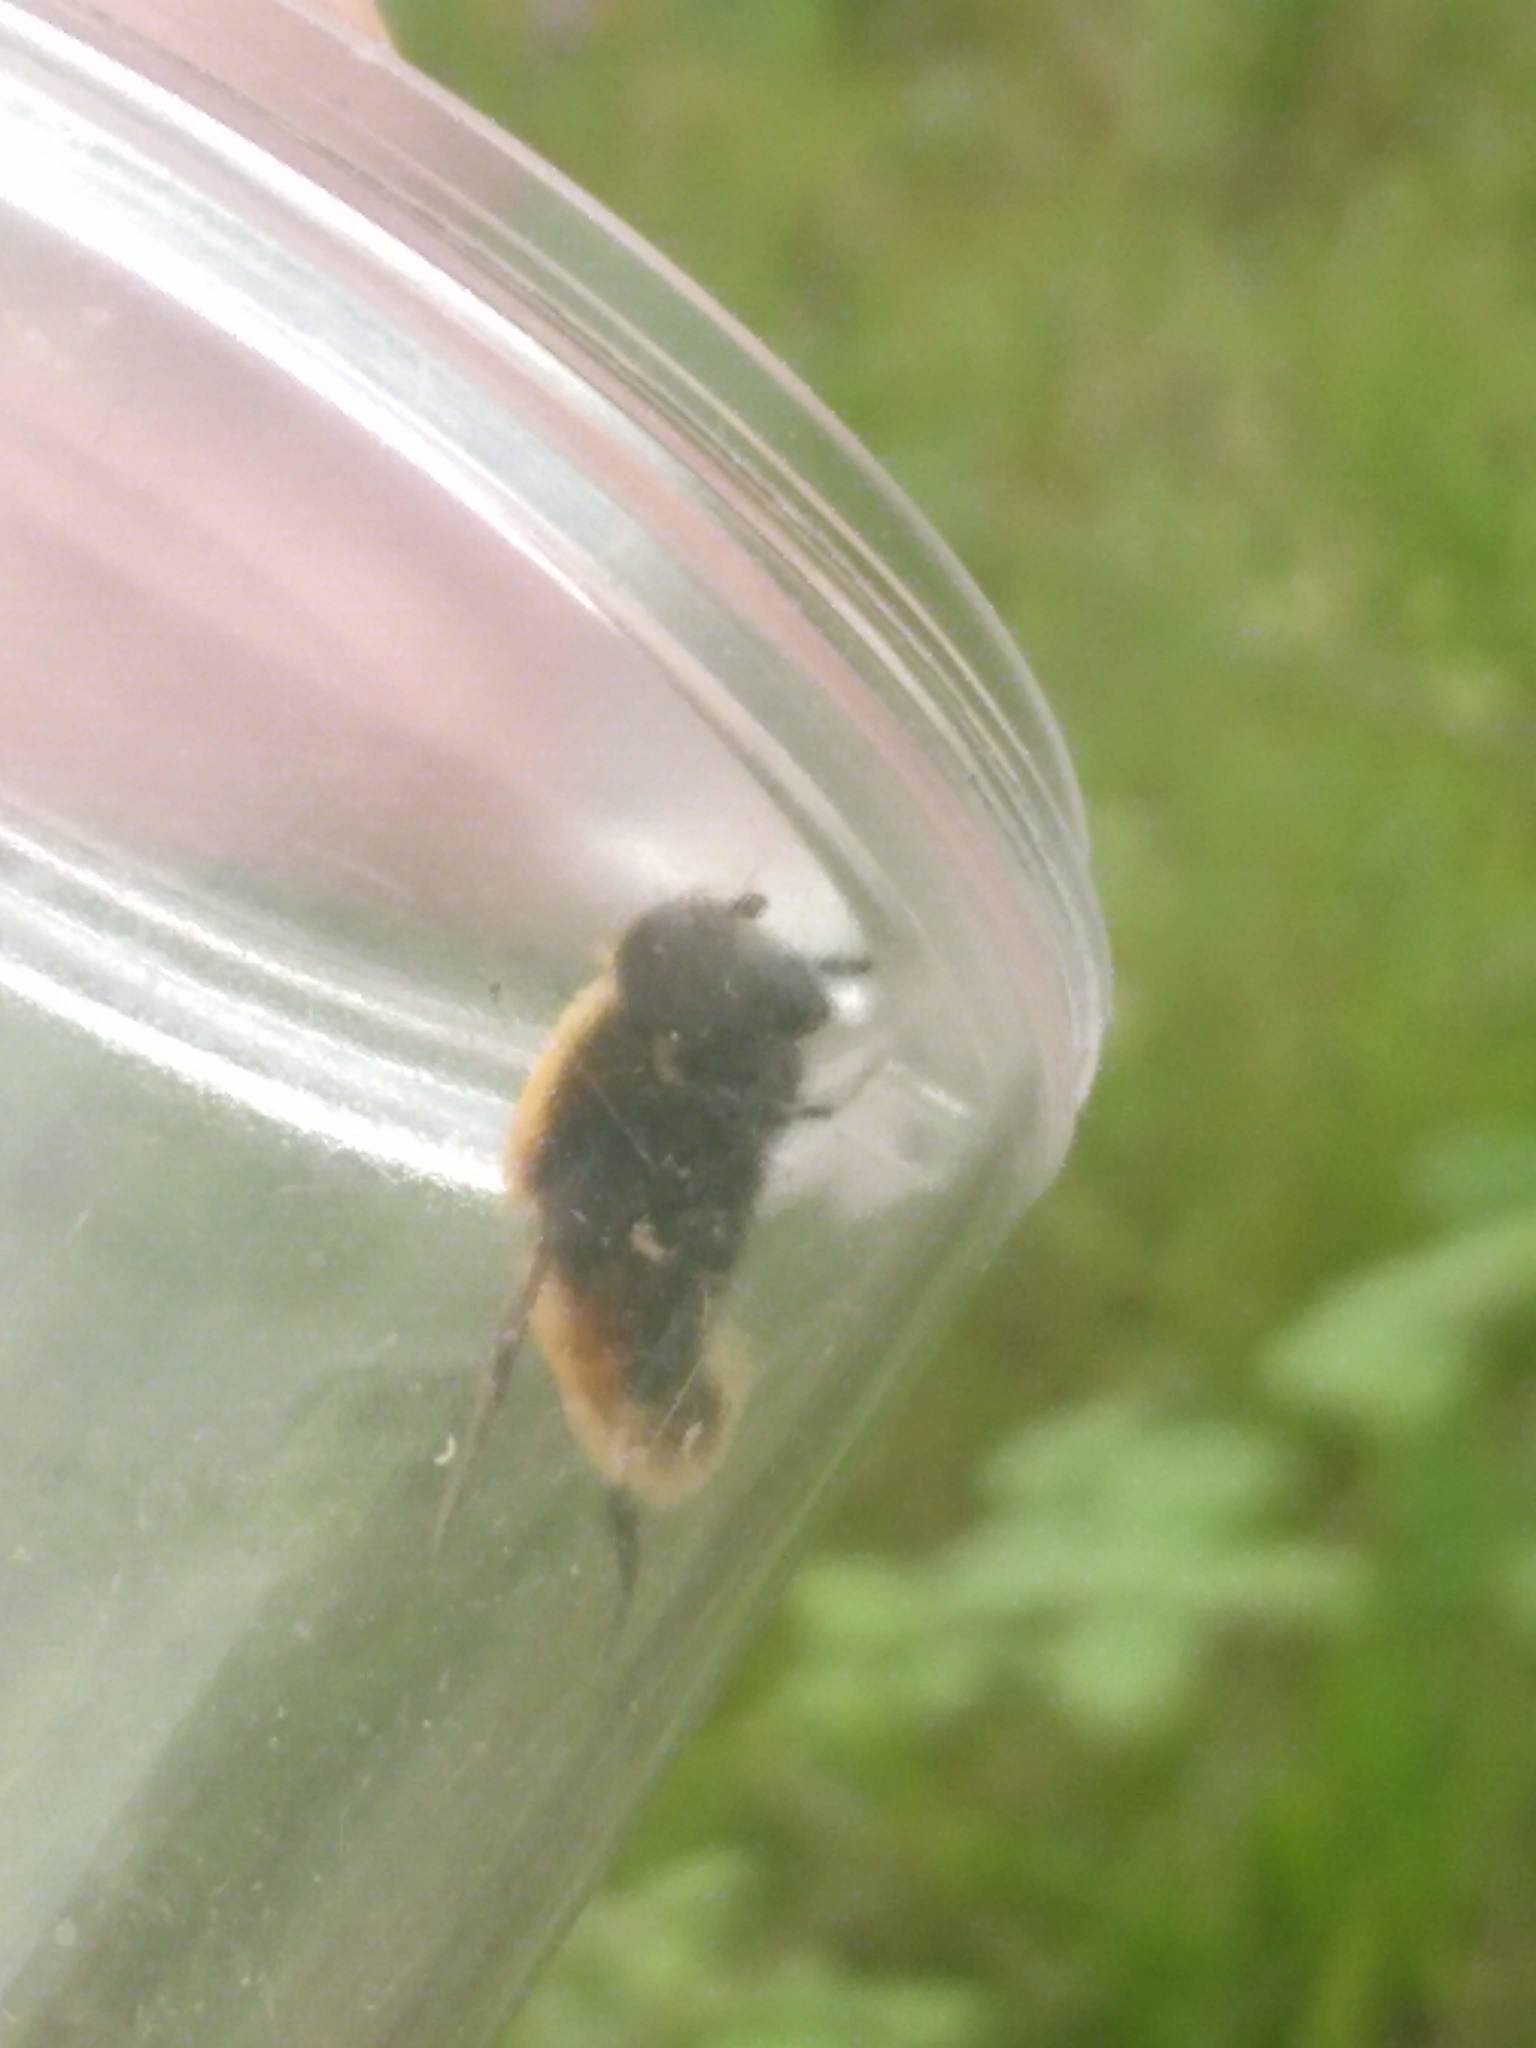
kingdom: Animalia
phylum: Arthropoda
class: Insecta
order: Diptera
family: Syrphidae
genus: Eristalis
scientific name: Eristalis intricaria
